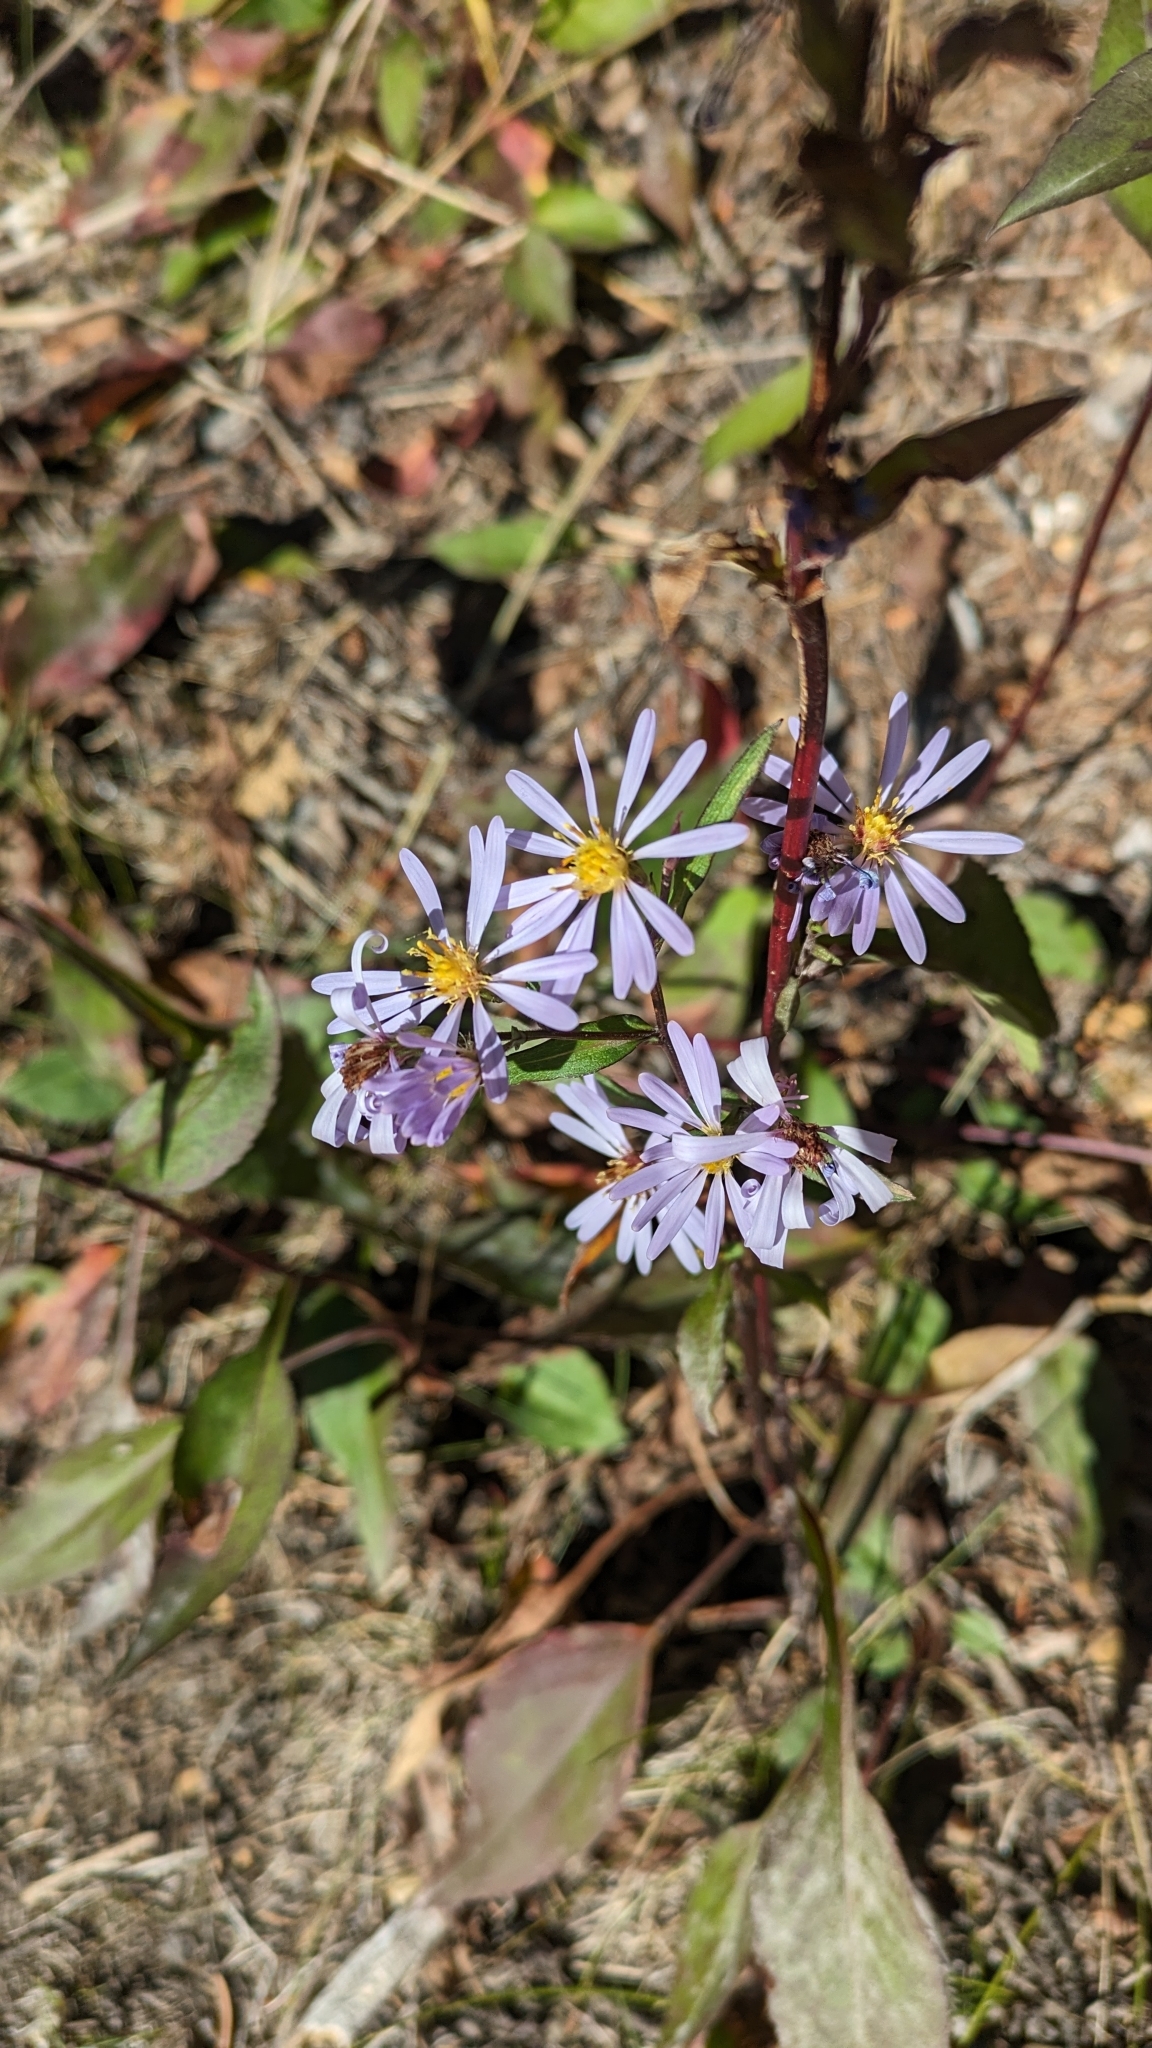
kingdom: Plantae
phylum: Tracheophyta
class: Magnoliopsida
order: Asterales
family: Asteraceae
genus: Symphyotrichum
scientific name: Symphyotrichum ciliolatum
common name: Fringed blue aster
